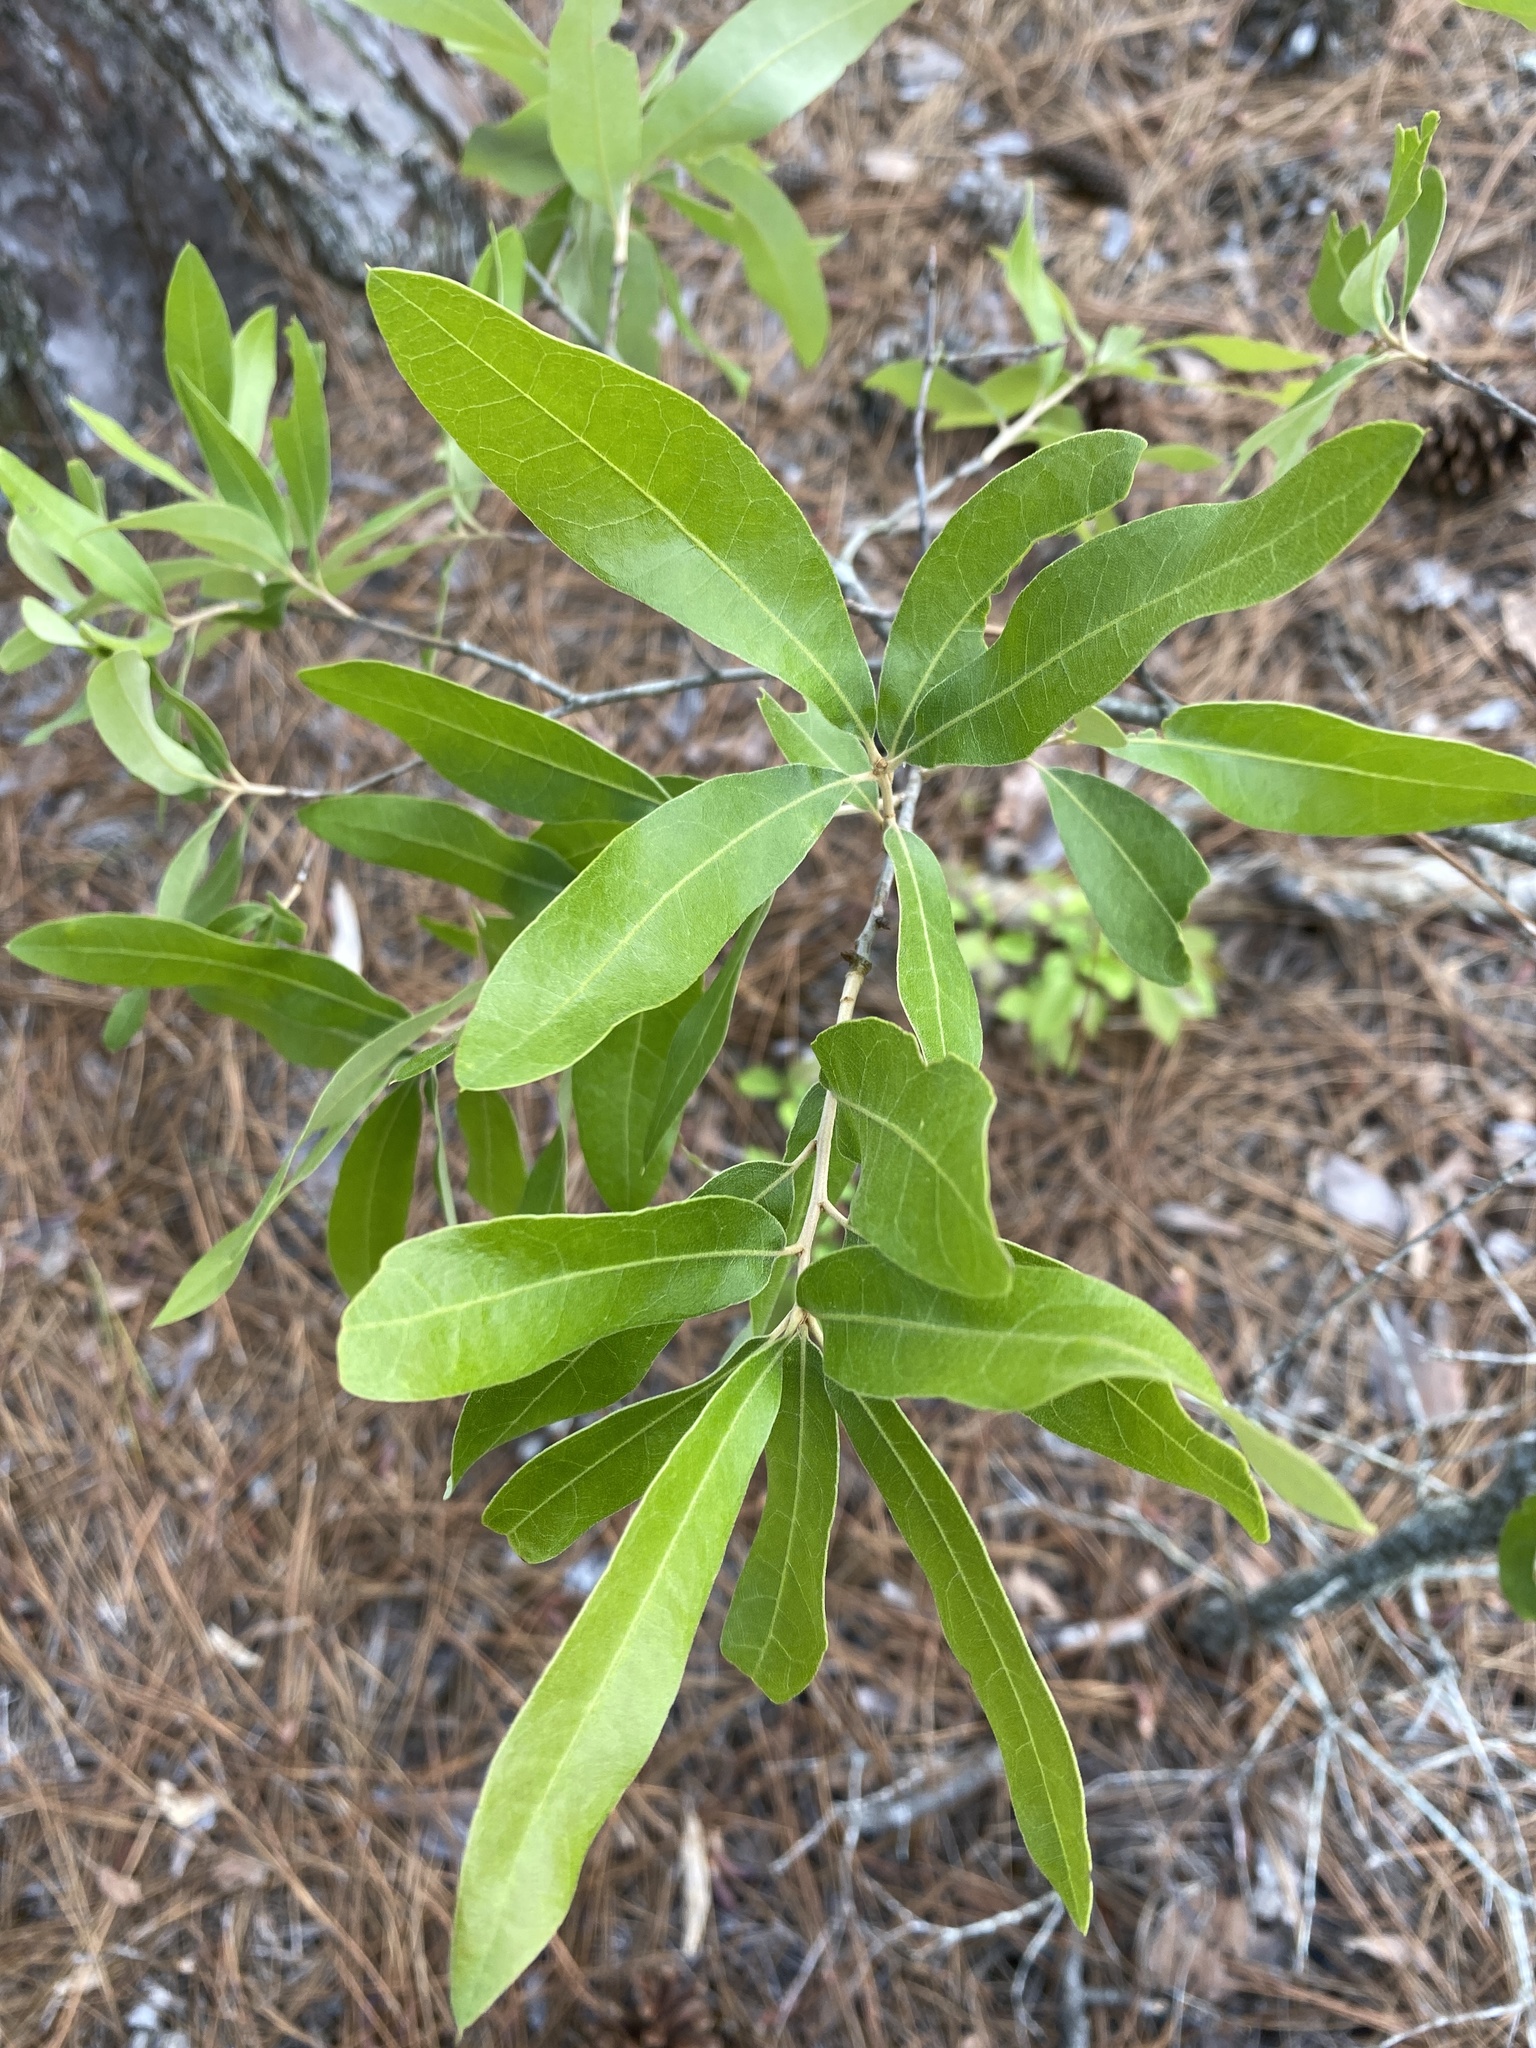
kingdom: Plantae
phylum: Tracheophyta
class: Magnoliopsida
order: Fagales
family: Fagaceae
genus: Quercus
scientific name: Quercus incana
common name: Bluejack oak
